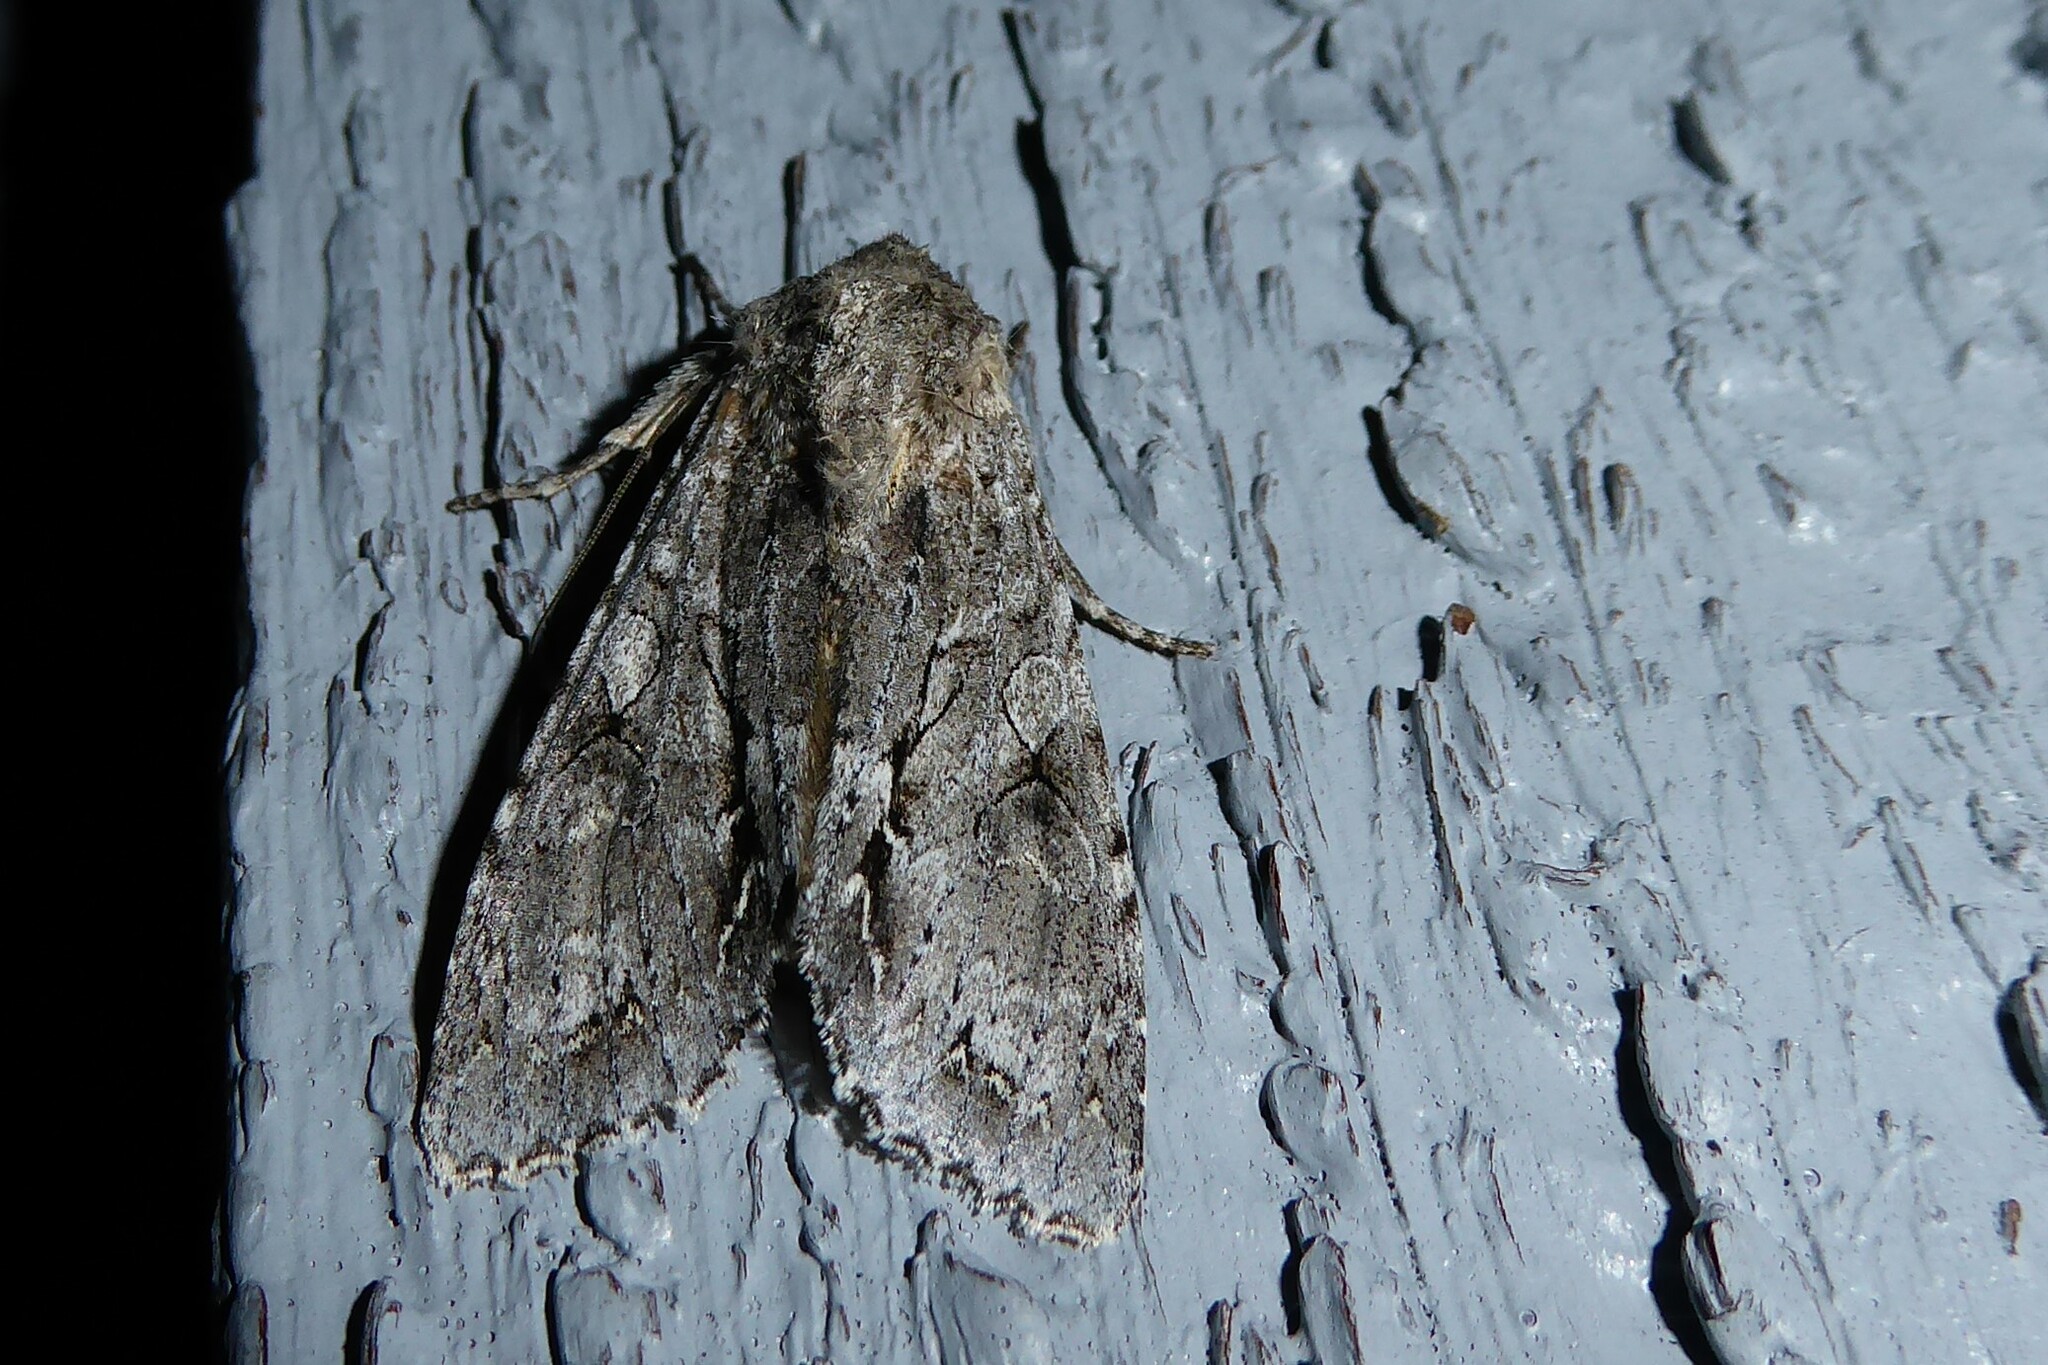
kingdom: Animalia
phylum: Arthropoda
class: Insecta
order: Lepidoptera
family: Noctuidae
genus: Ichneutica
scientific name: Ichneutica
